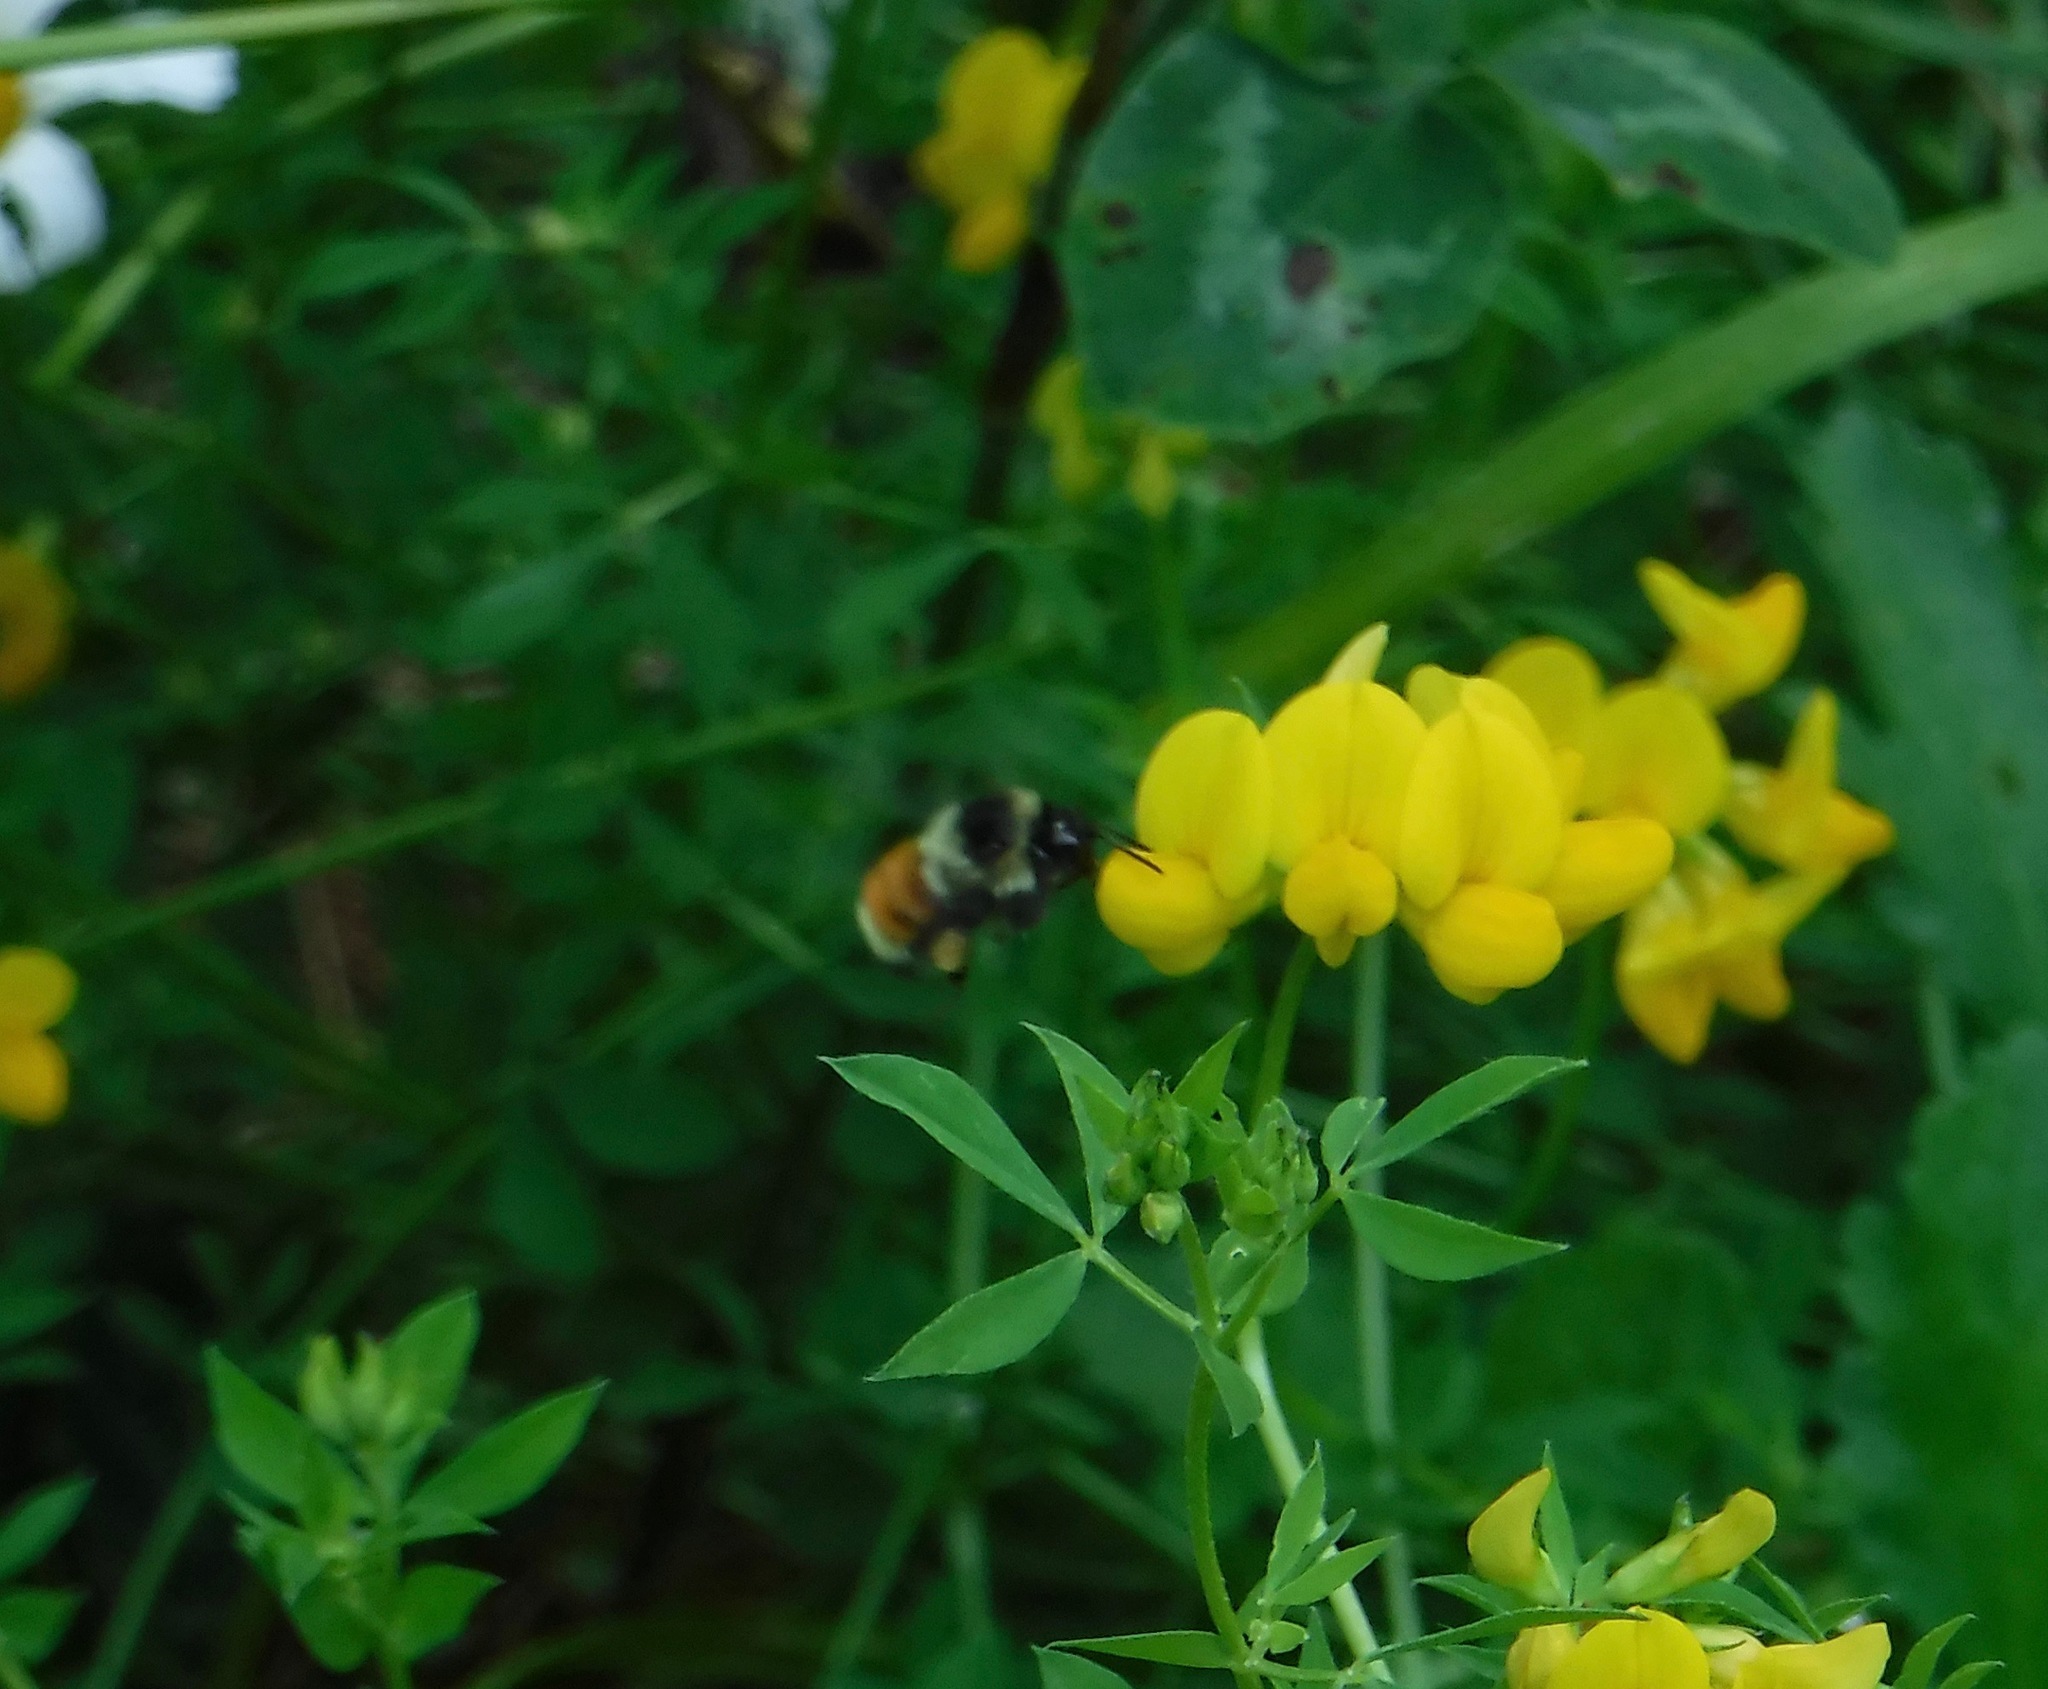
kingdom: Animalia
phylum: Arthropoda
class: Insecta
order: Hymenoptera
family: Apidae
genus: Bombus
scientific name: Bombus ternarius
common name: Tri-colored bumble bee
